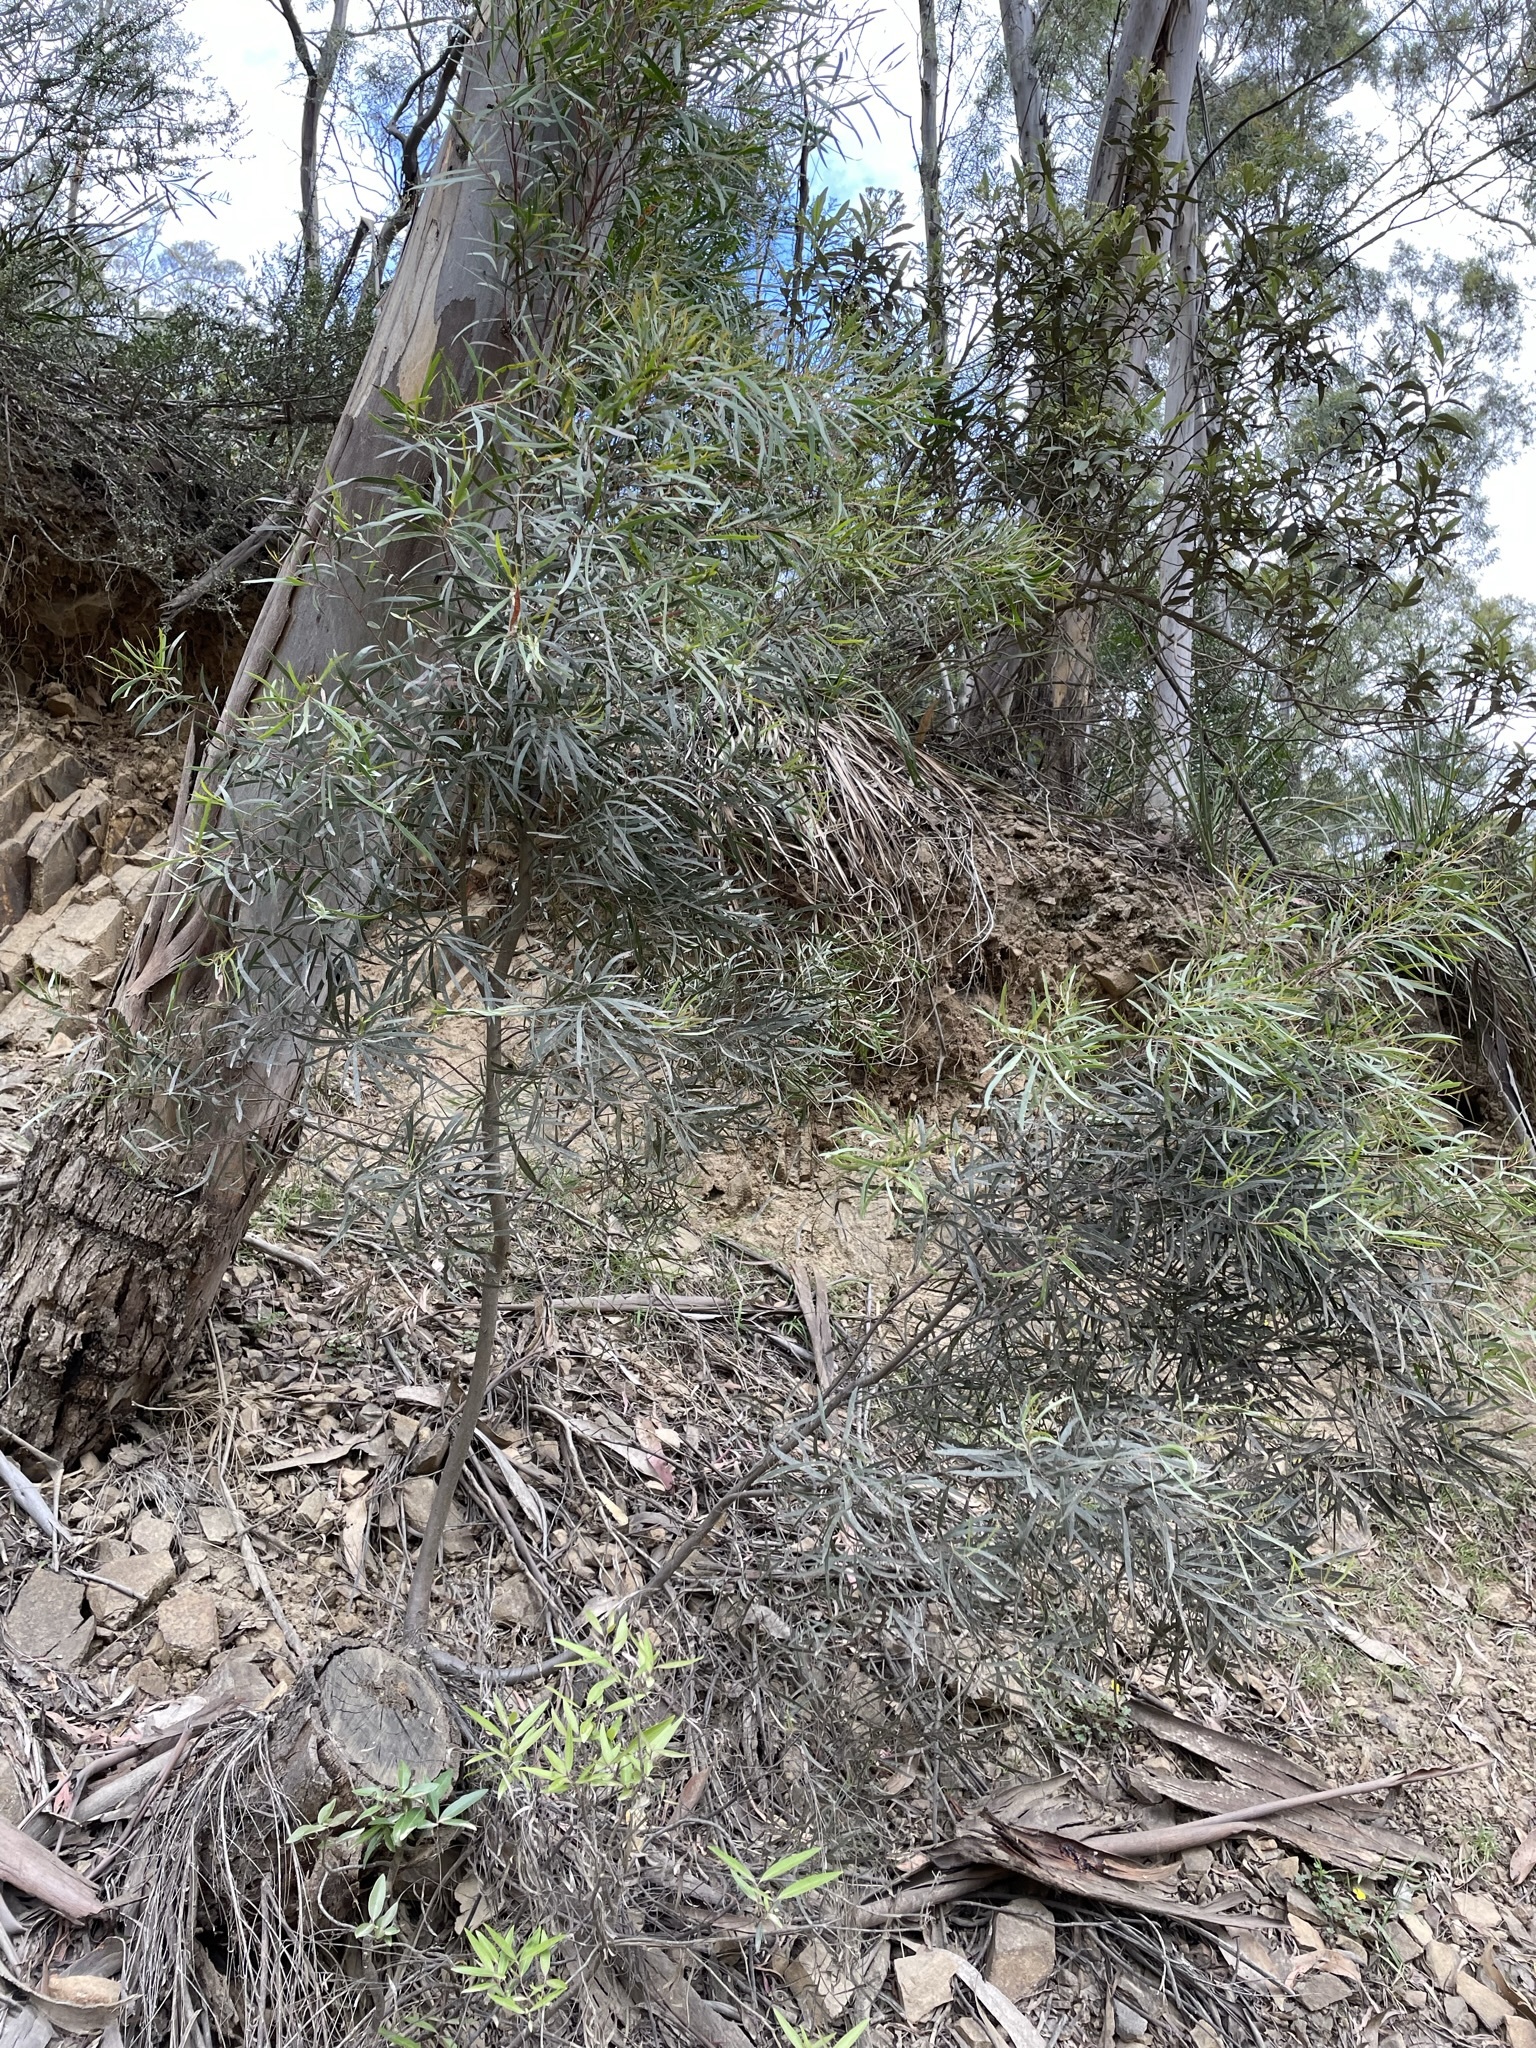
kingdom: Plantae
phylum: Tracheophyta
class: Magnoliopsida
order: Myrtales
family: Myrtaceae
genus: Eucalyptus
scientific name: Eucalyptus pulchella
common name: White peppermint
